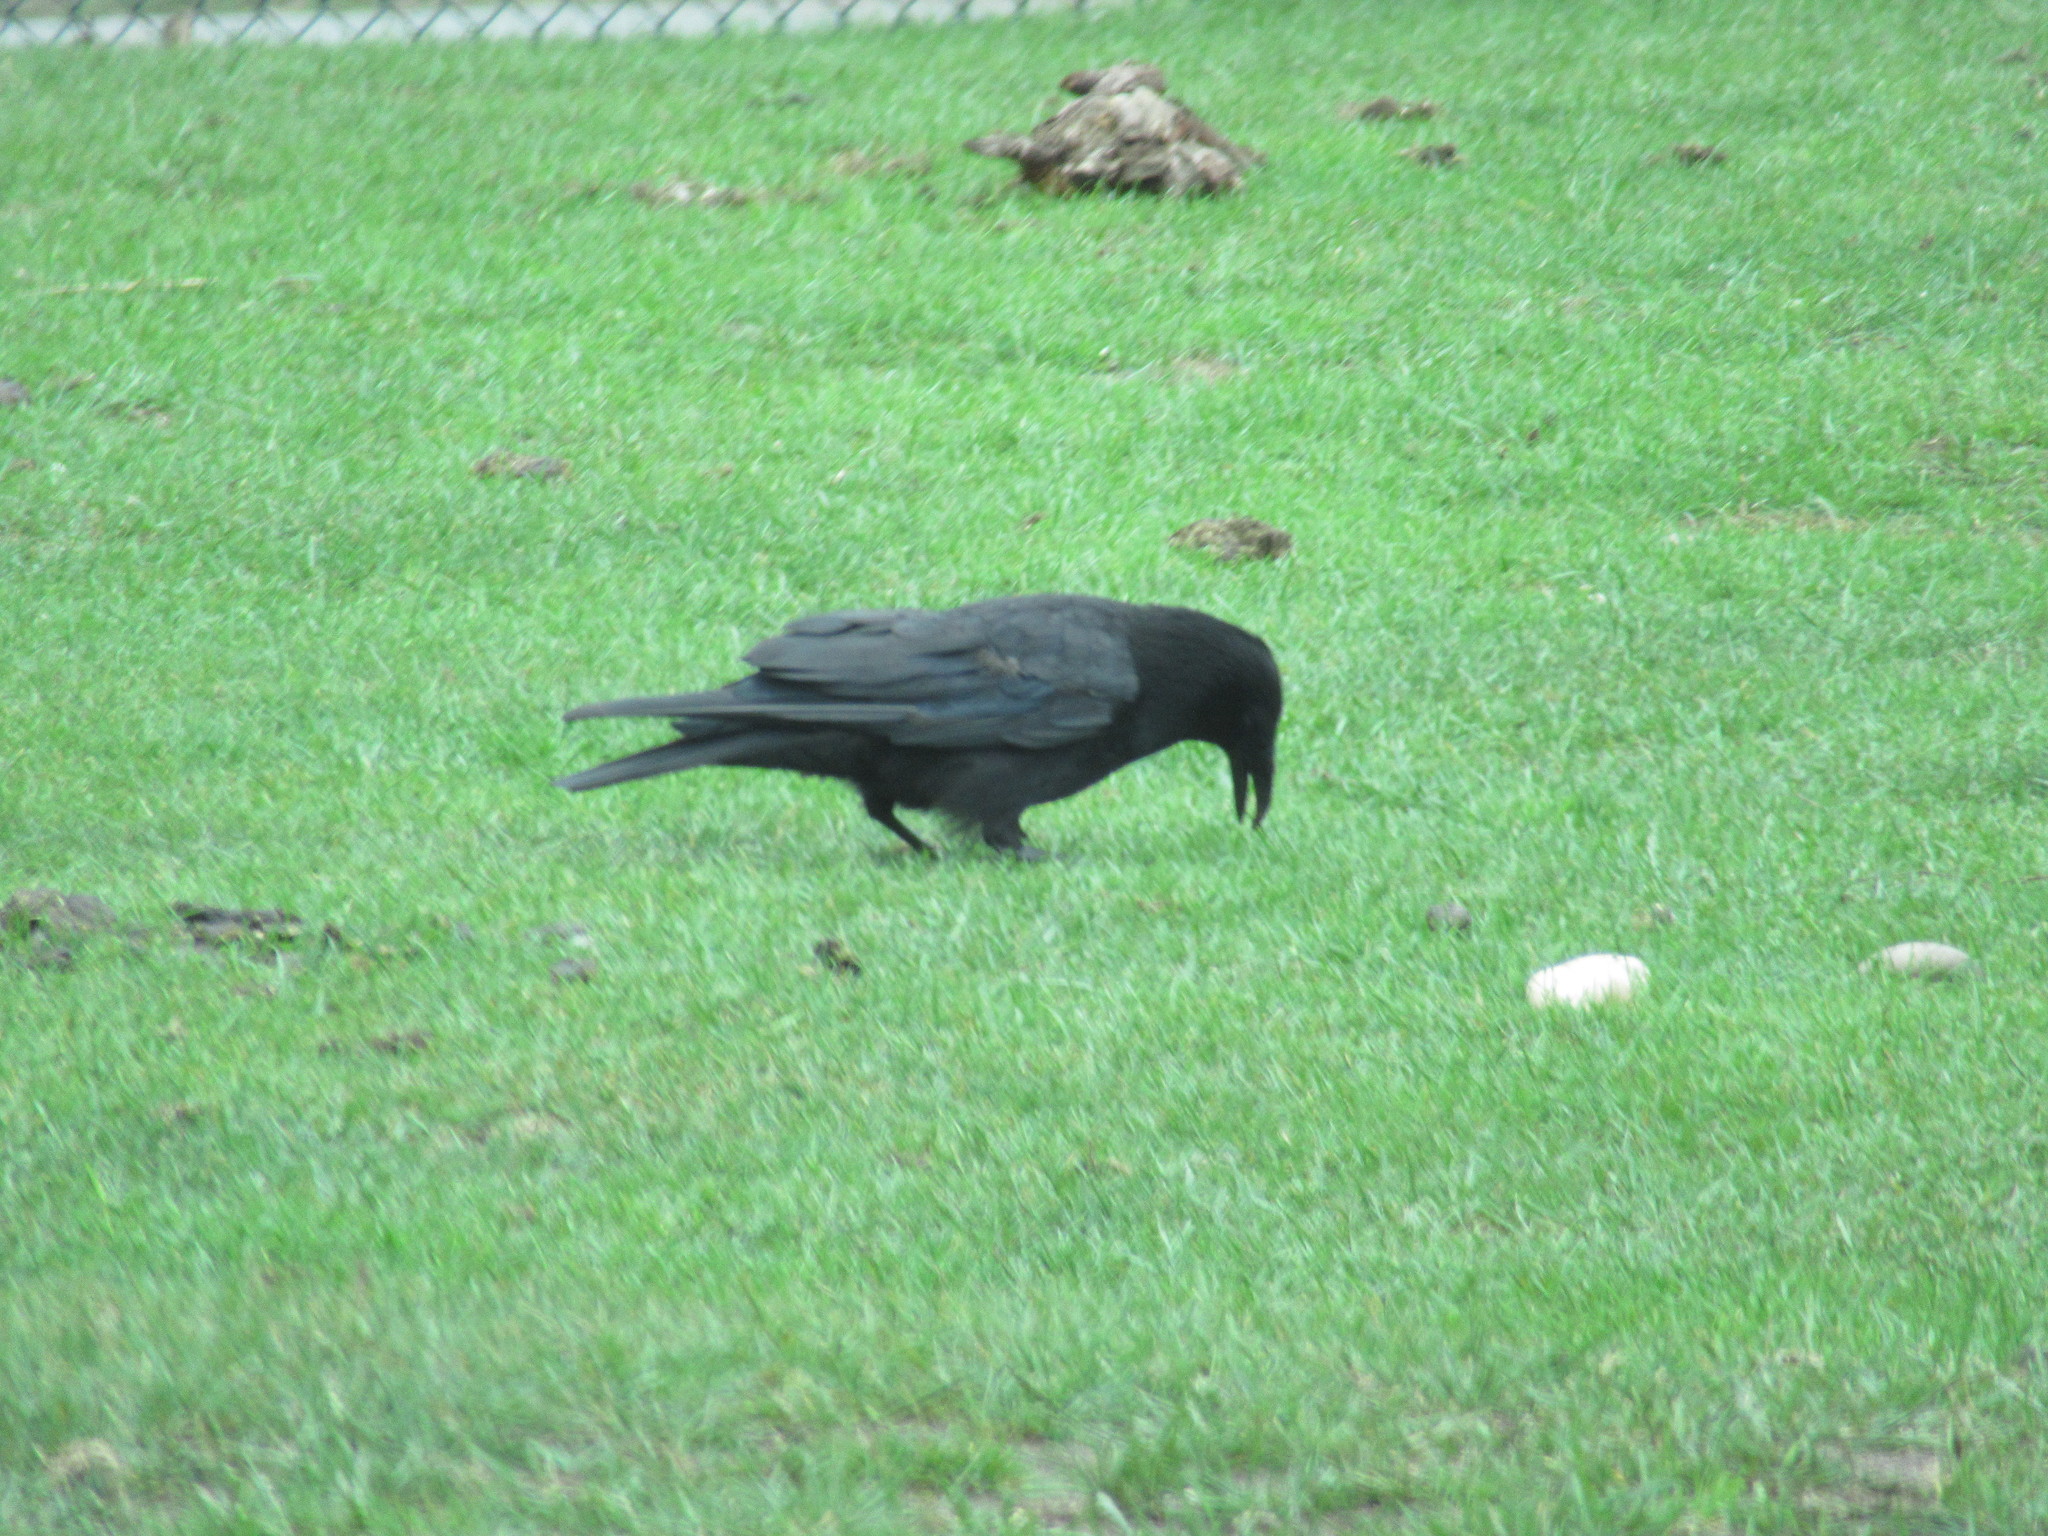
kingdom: Animalia
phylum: Chordata
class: Aves
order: Passeriformes
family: Corvidae
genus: Corvus
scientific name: Corvus corone
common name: Carrion crow
